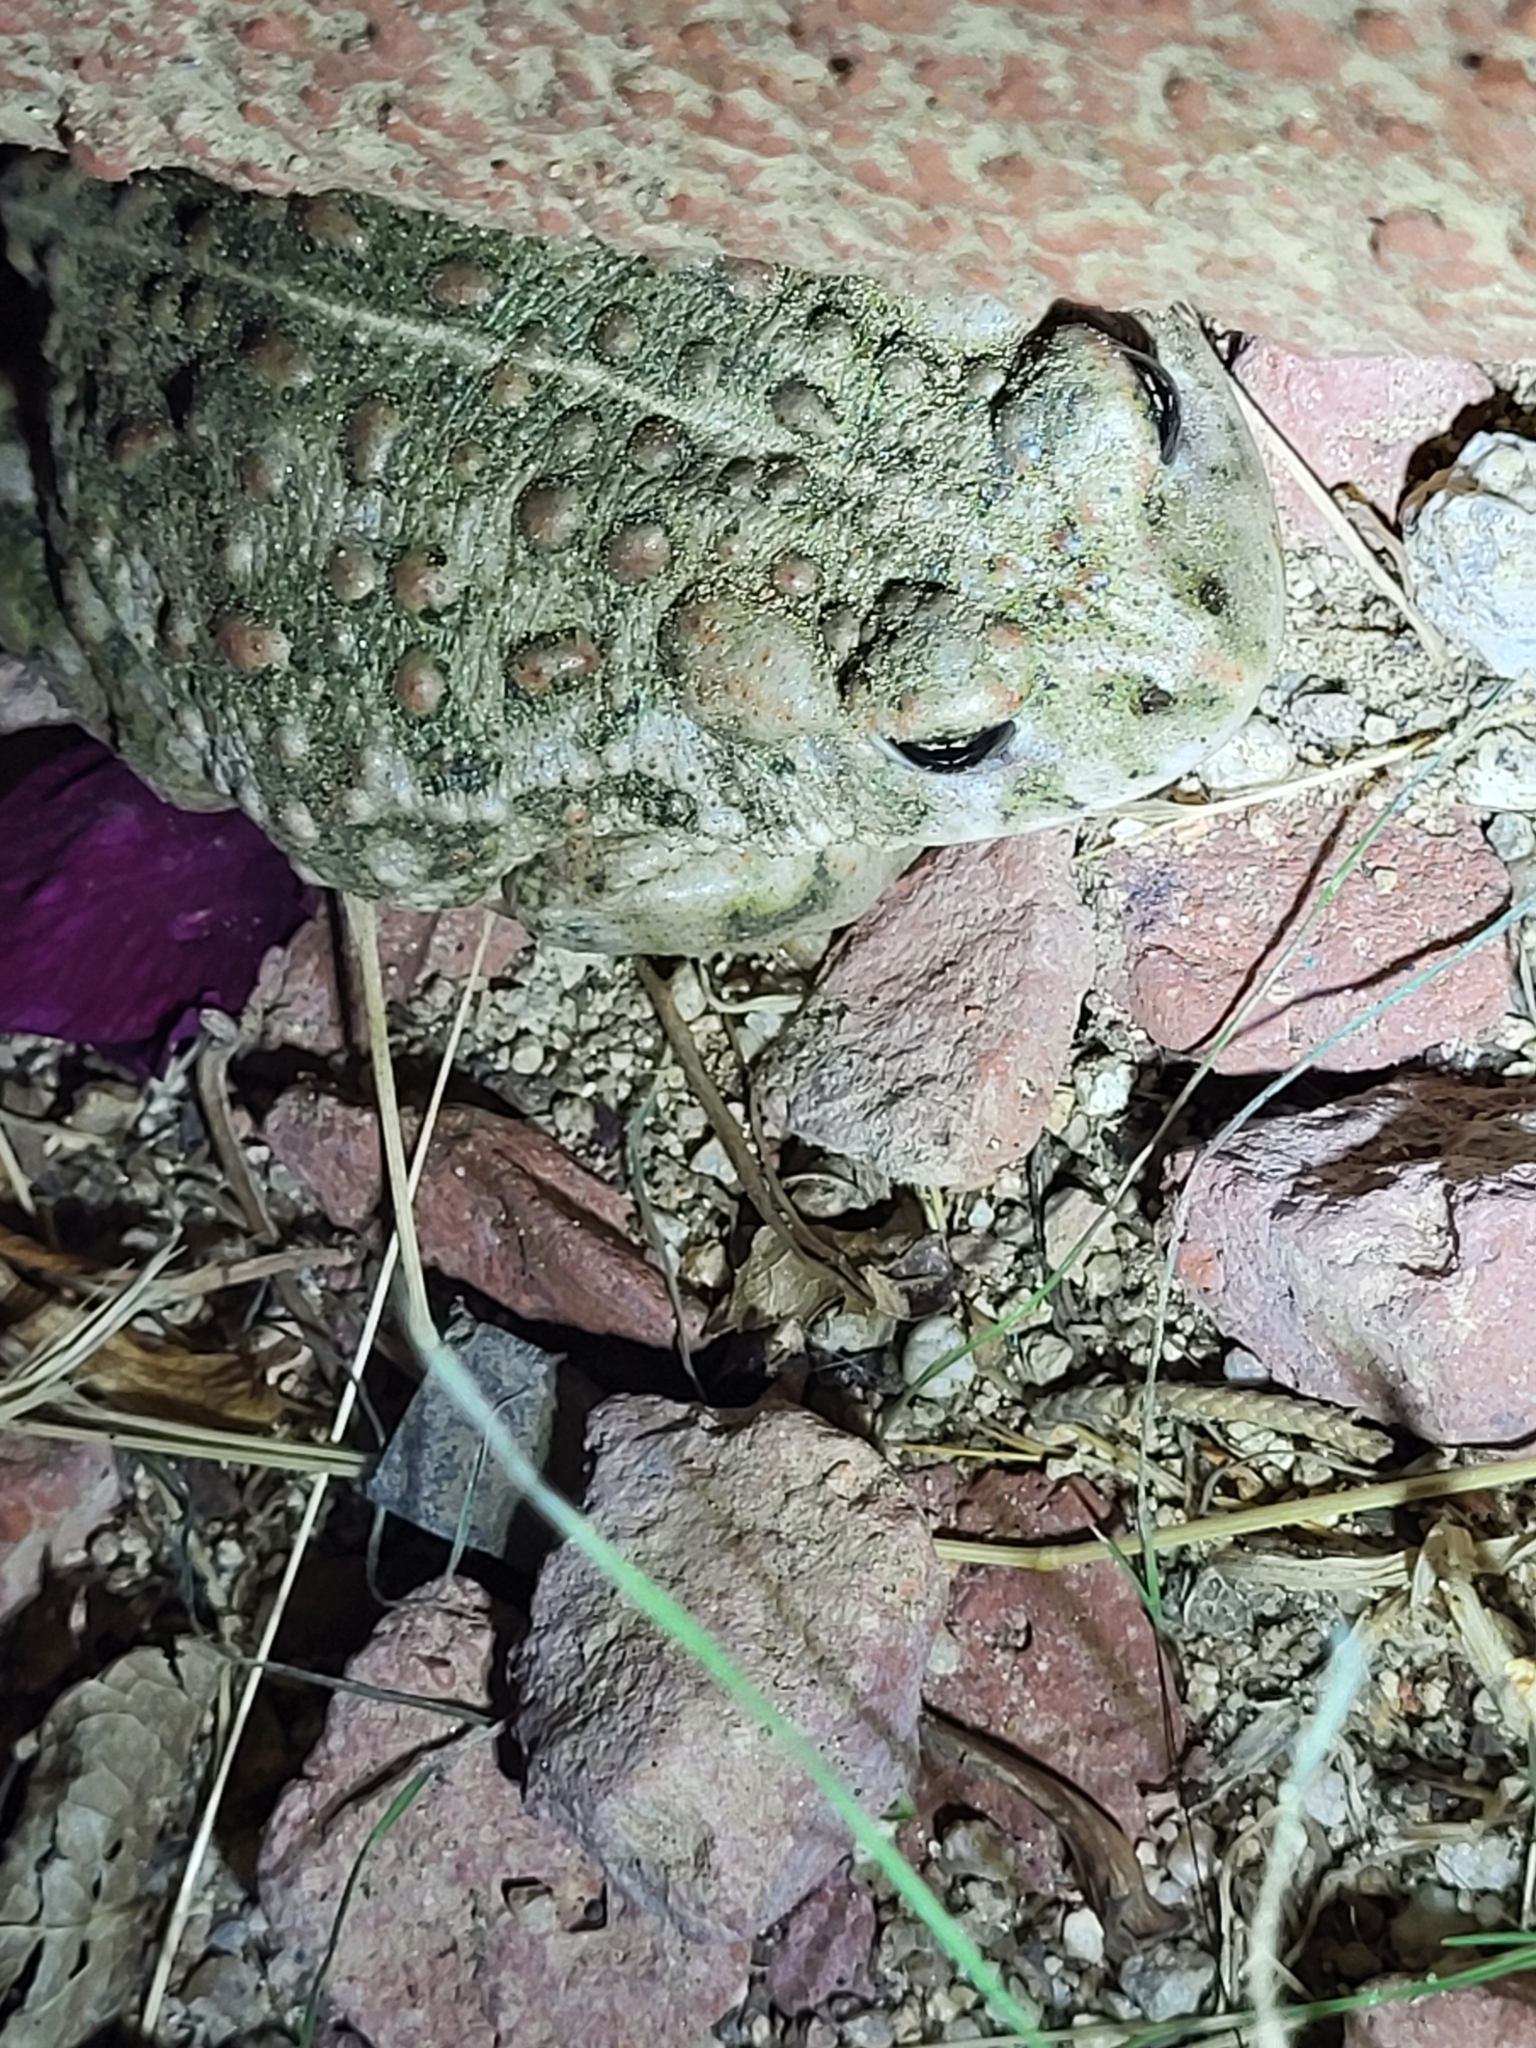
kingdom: Animalia
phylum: Chordata
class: Amphibia
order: Anura
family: Bufonidae
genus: Anaxyrus
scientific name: Anaxyrus boreas
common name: Western toad
